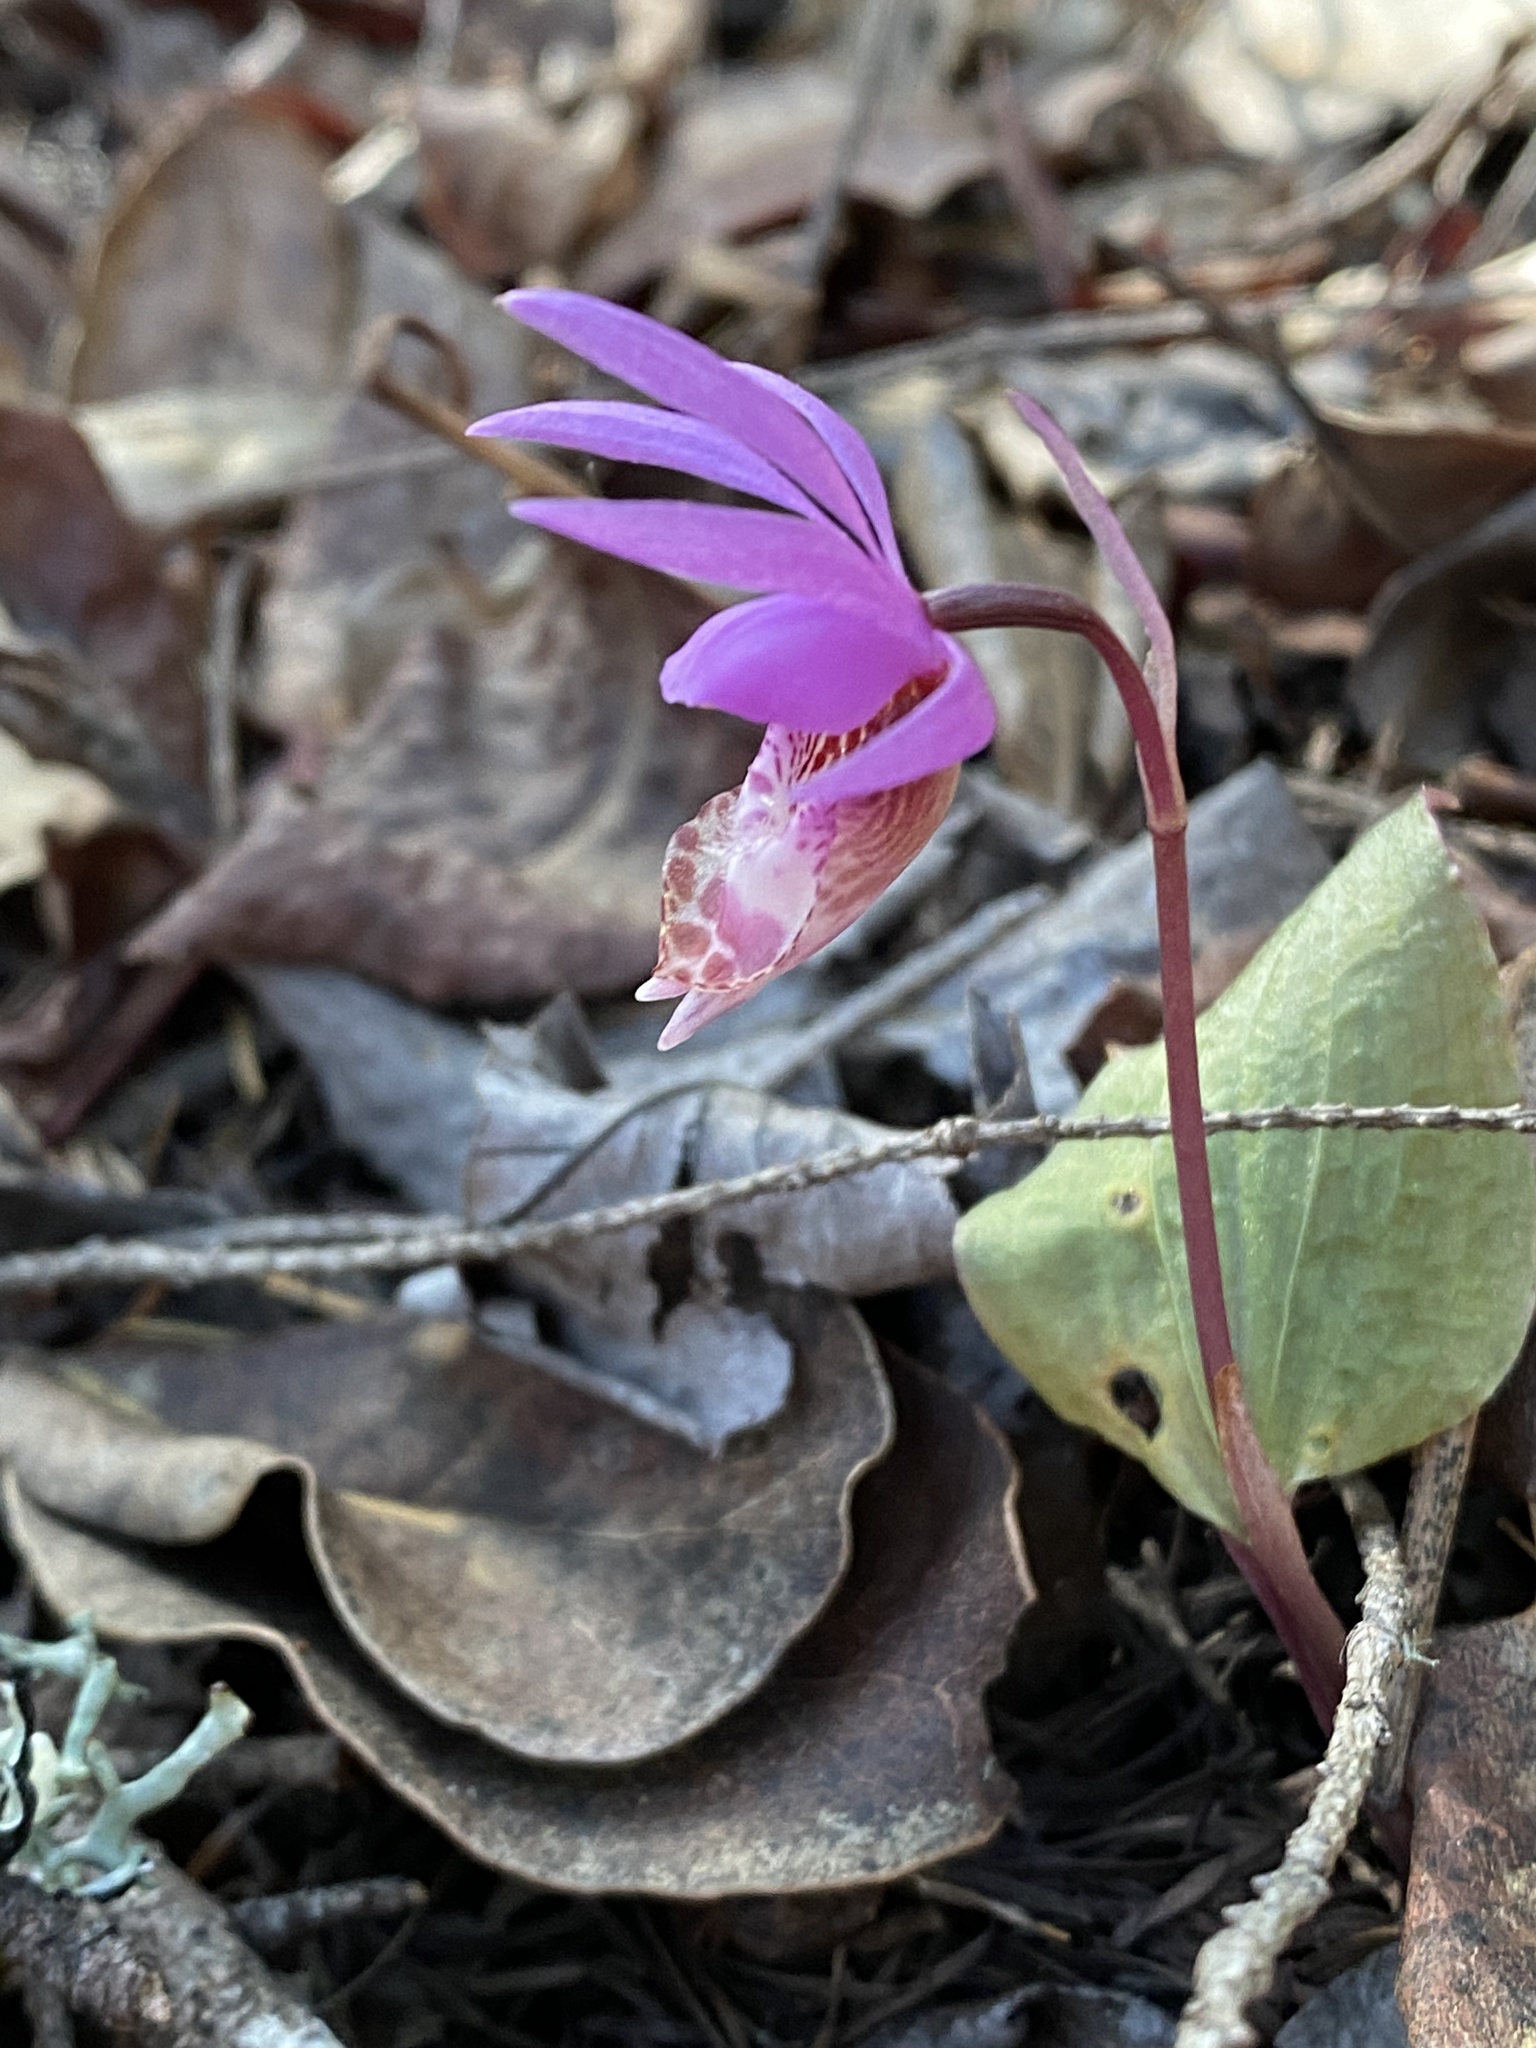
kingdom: Plantae
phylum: Tracheophyta
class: Liliopsida
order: Asparagales
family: Orchidaceae
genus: Calypso
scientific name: Calypso bulbosa
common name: Calypso
